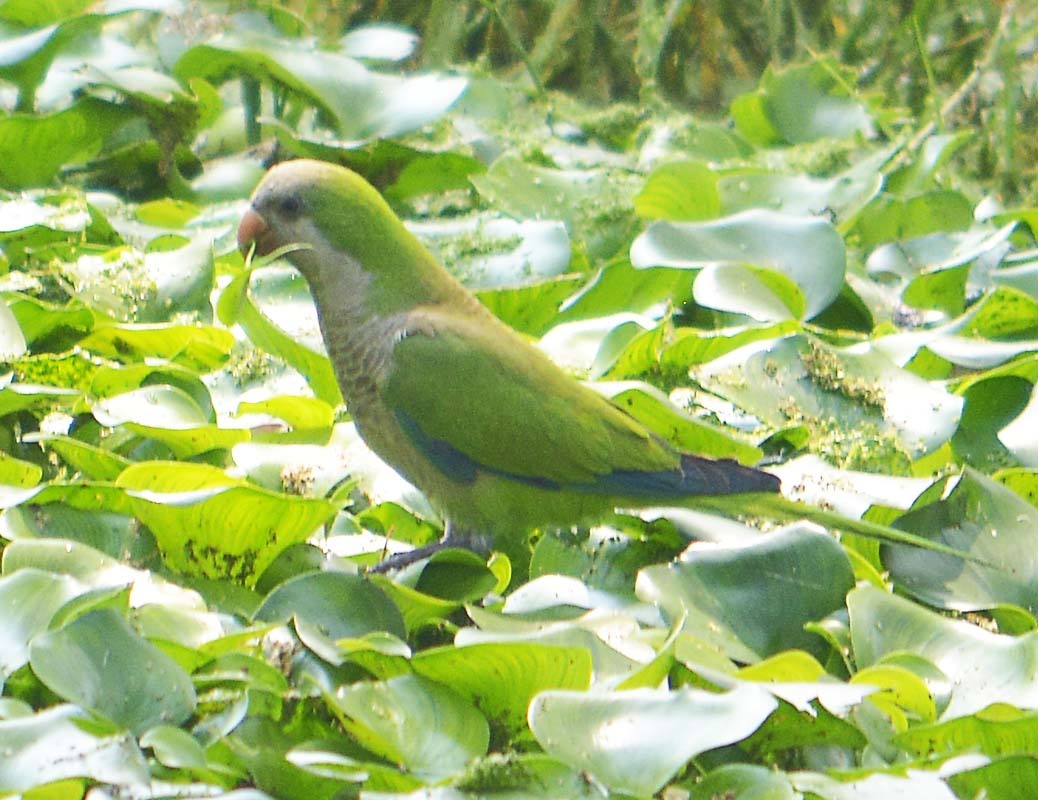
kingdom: Animalia
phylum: Chordata
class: Aves
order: Psittaciformes
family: Psittacidae
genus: Myiopsitta
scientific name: Myiopsitta monachus
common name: Monk parakeet
